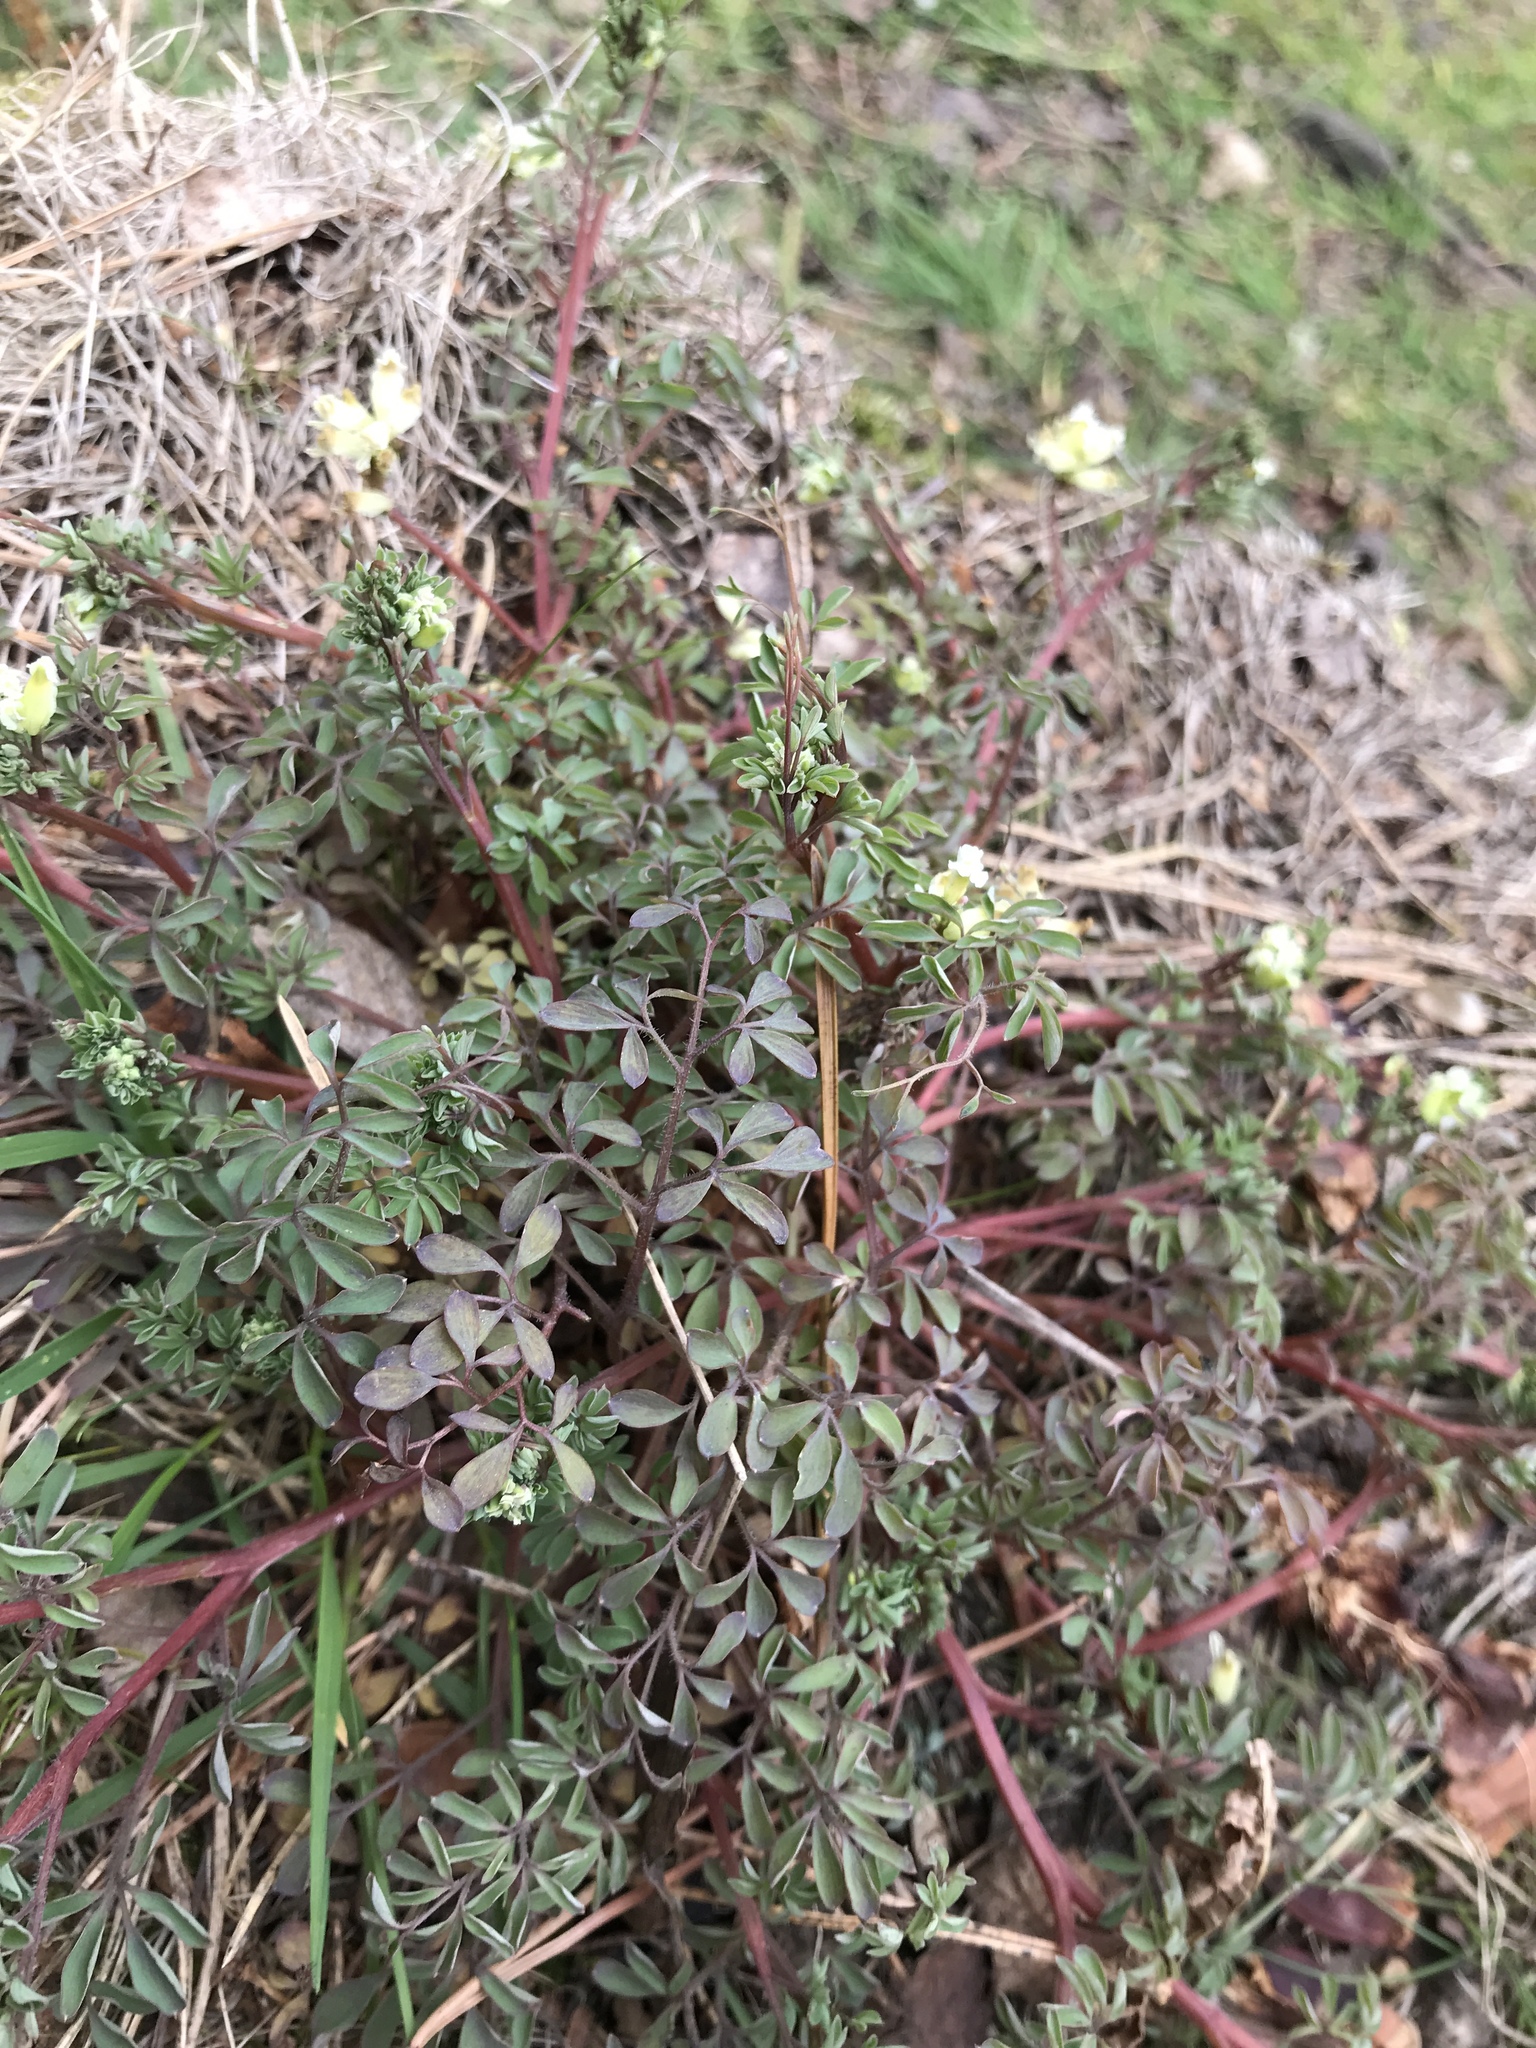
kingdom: Plantae
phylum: Tracheophyta
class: Magnoliopsida
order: Ranunculales
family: Papaveraceae
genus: Ceratocapnos
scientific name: Ceratocapnos claviculata
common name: Climbing corydalis
